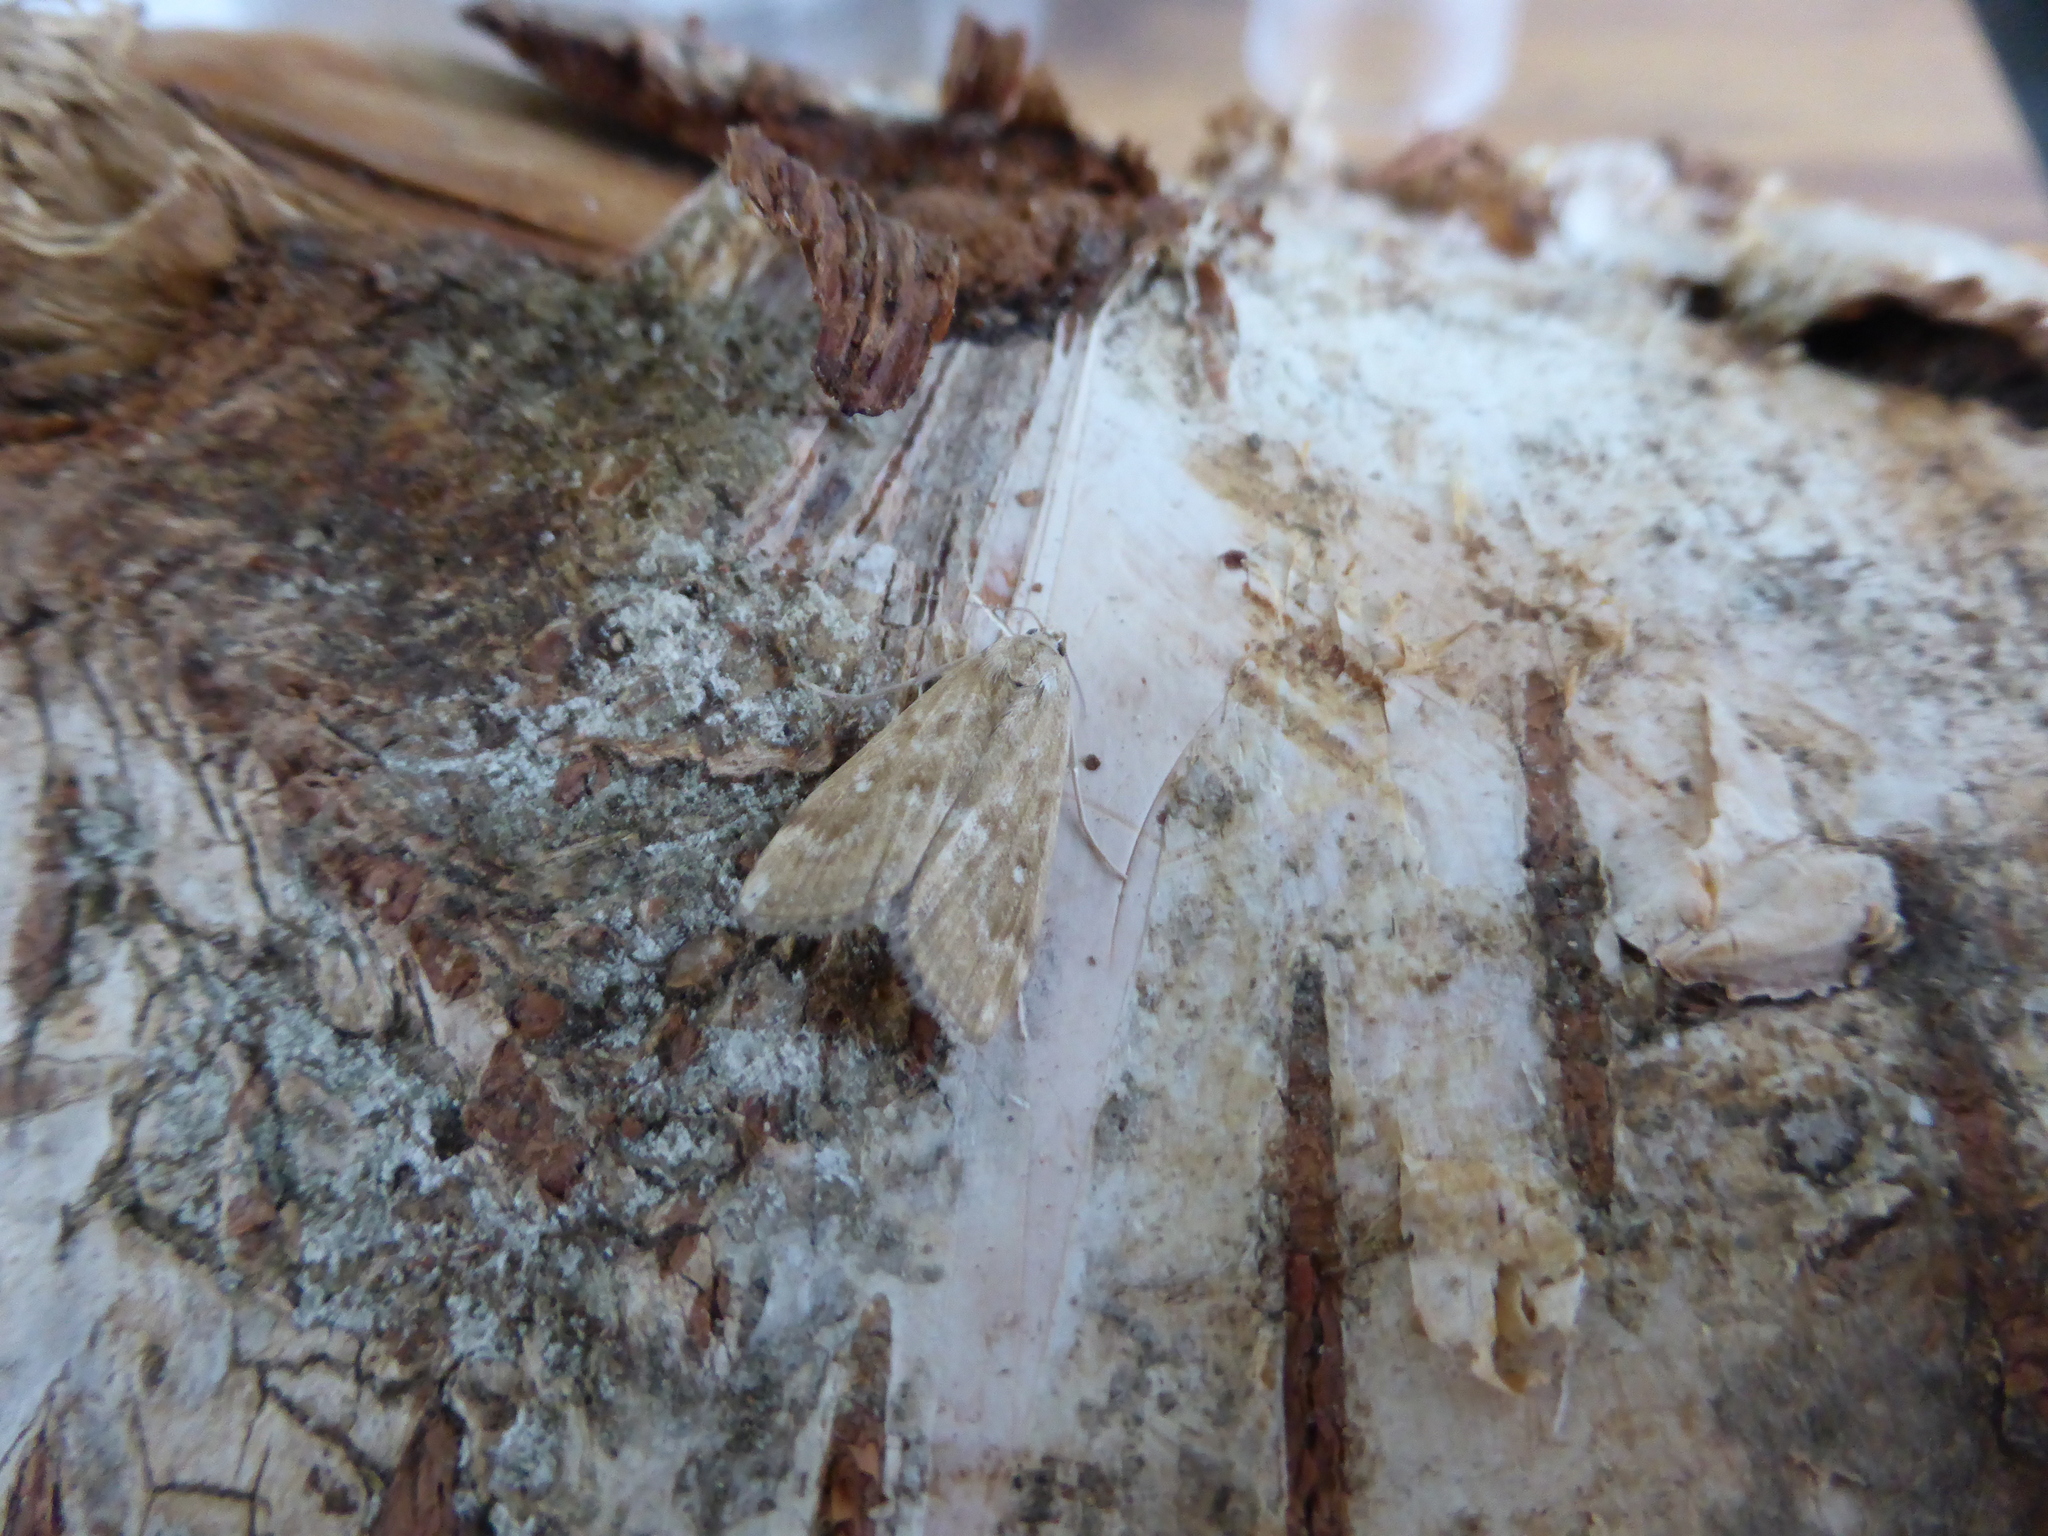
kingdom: Animalia
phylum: Arthropoda
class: Insecta
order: Lepidoptera
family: Crambidae
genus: Parapoynx
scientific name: Parapoynx stratiotata
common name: Ringed china-mark
